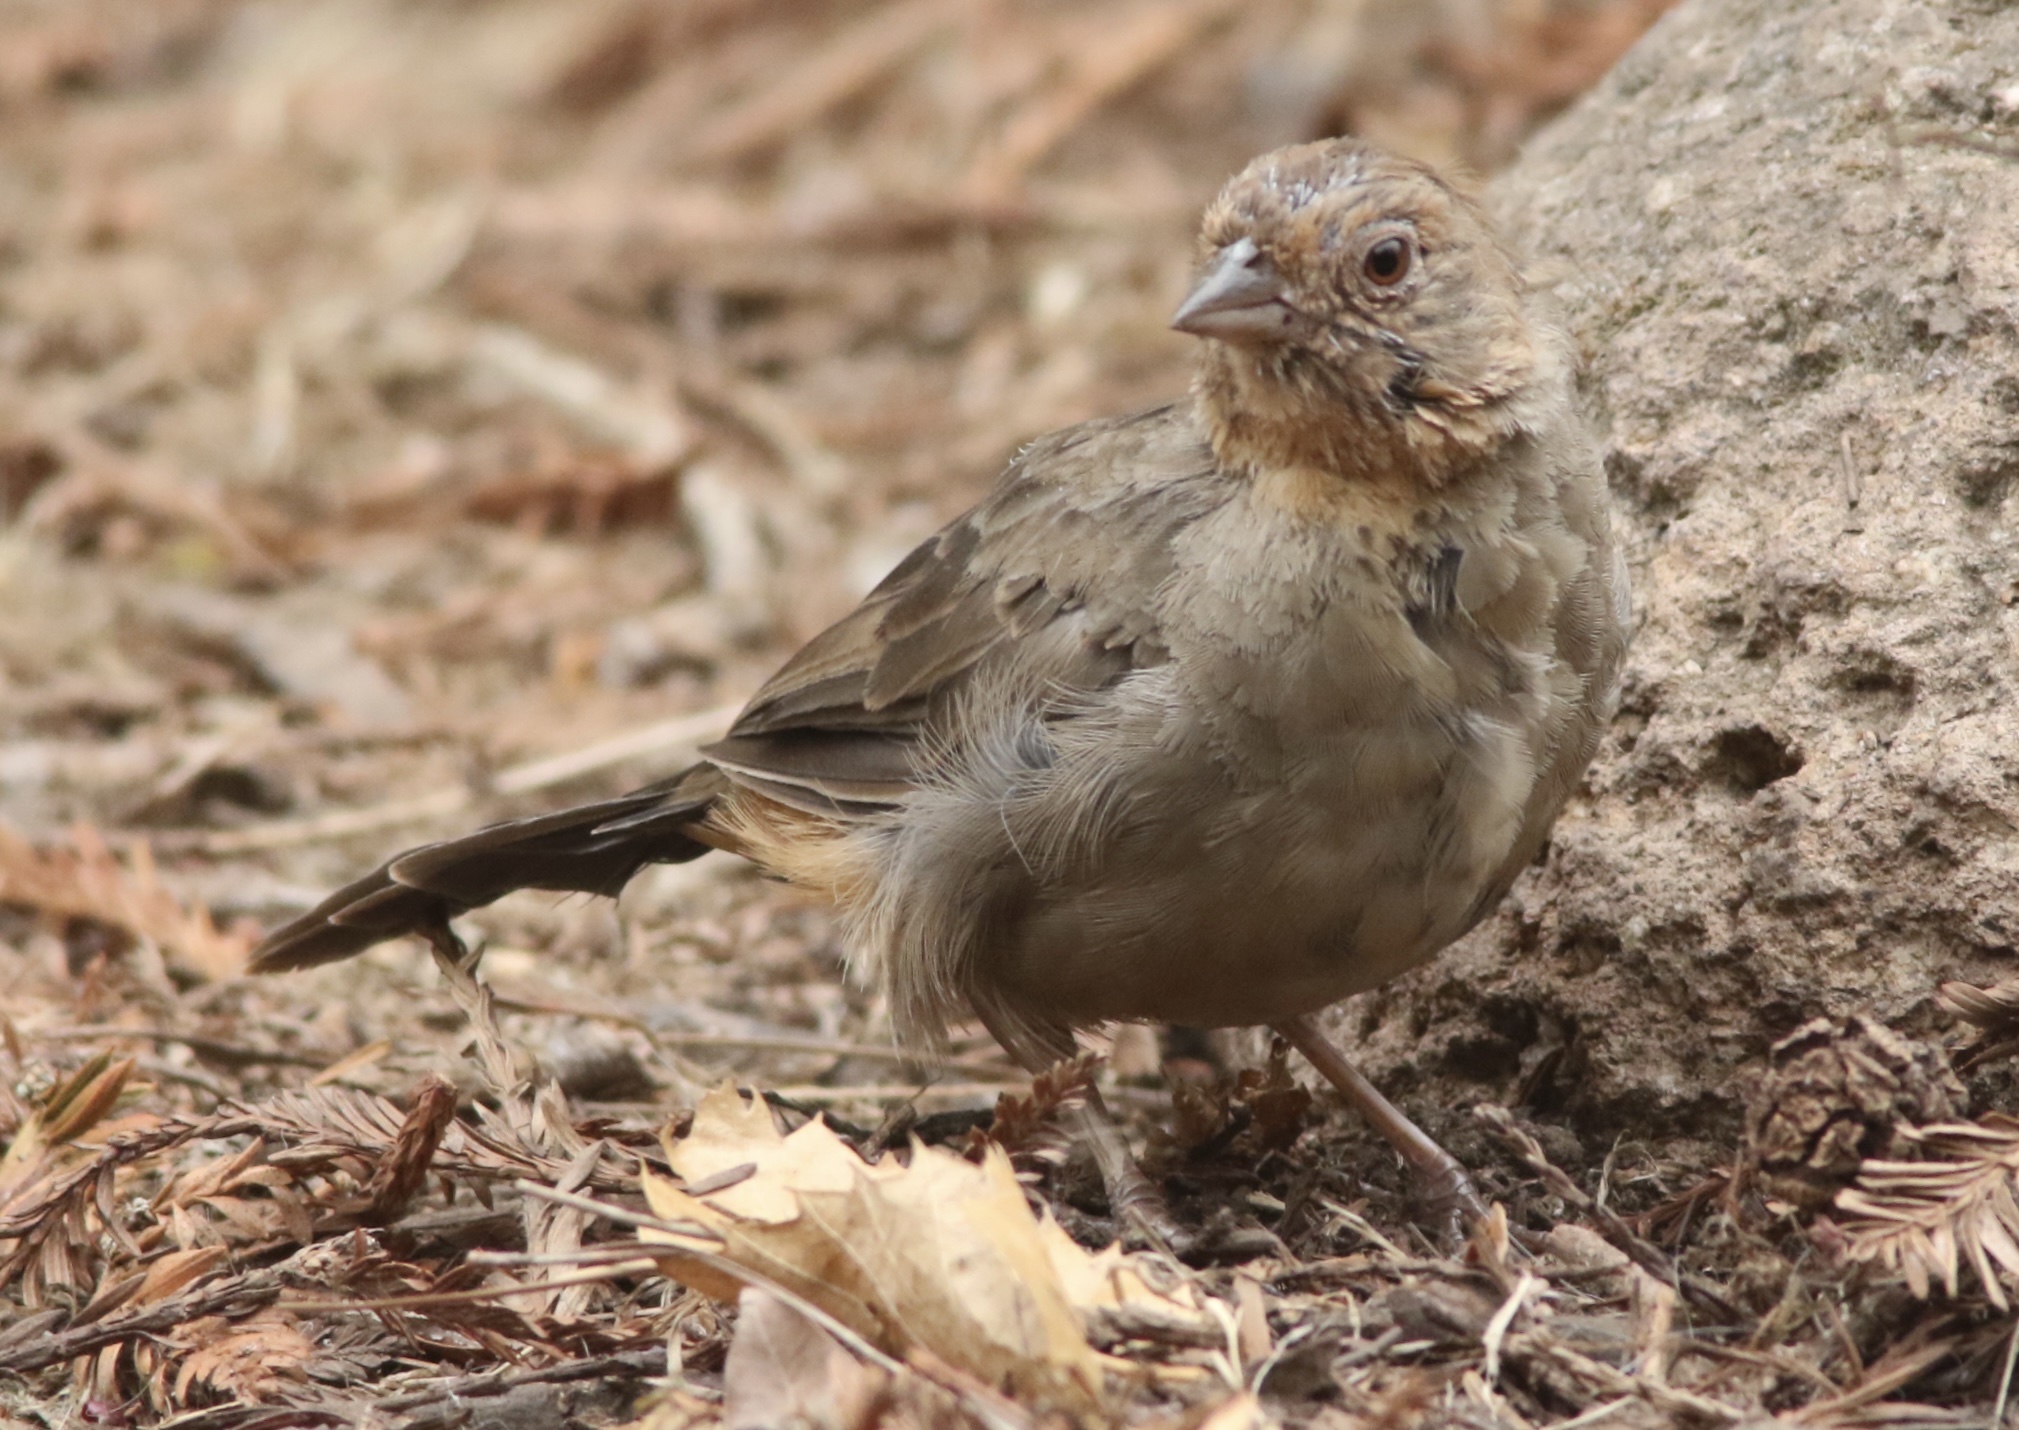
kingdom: Animalia
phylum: Chordata
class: Aves
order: Passeriformes
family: Passerellidae
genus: Melozone
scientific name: Melozone crissalis
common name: California towhee
